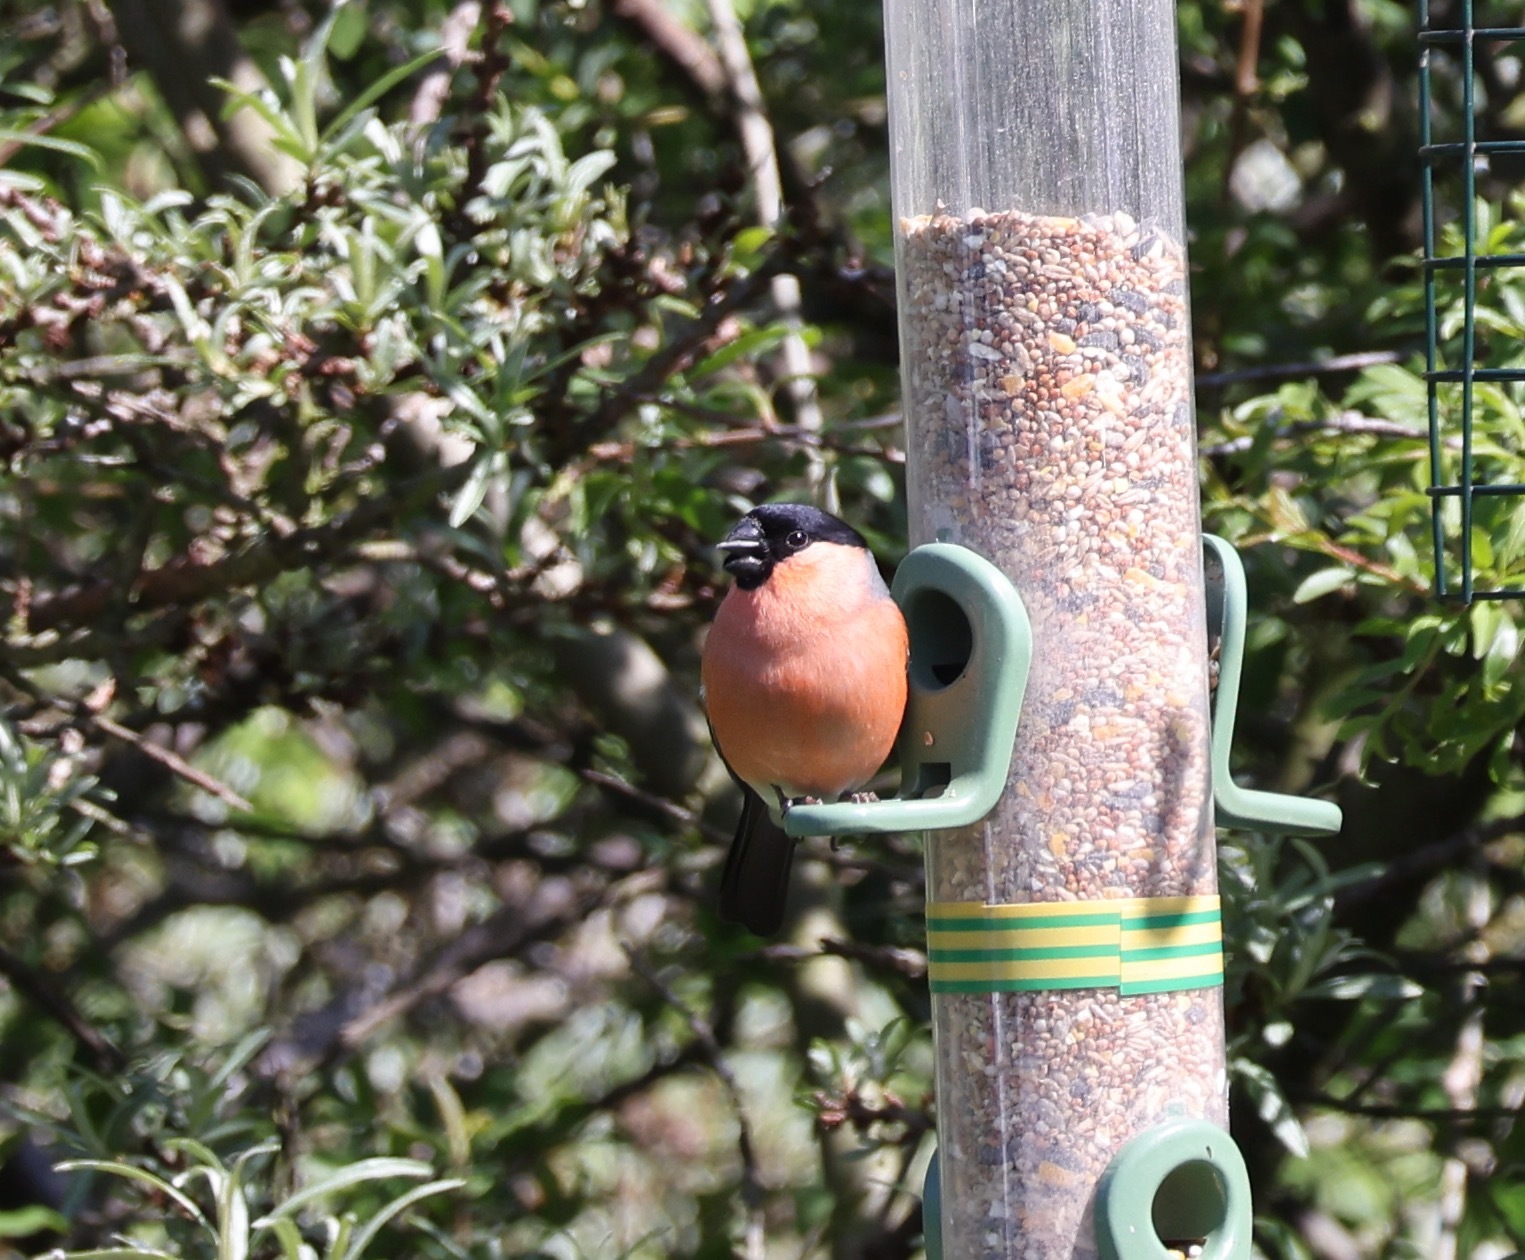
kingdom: Animalia
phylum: Chordata
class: Aves
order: Passeriformes
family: Fringillidae
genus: Pyrrhula
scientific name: Pyrrhula pyrrhula
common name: Eurasian bullfinch
